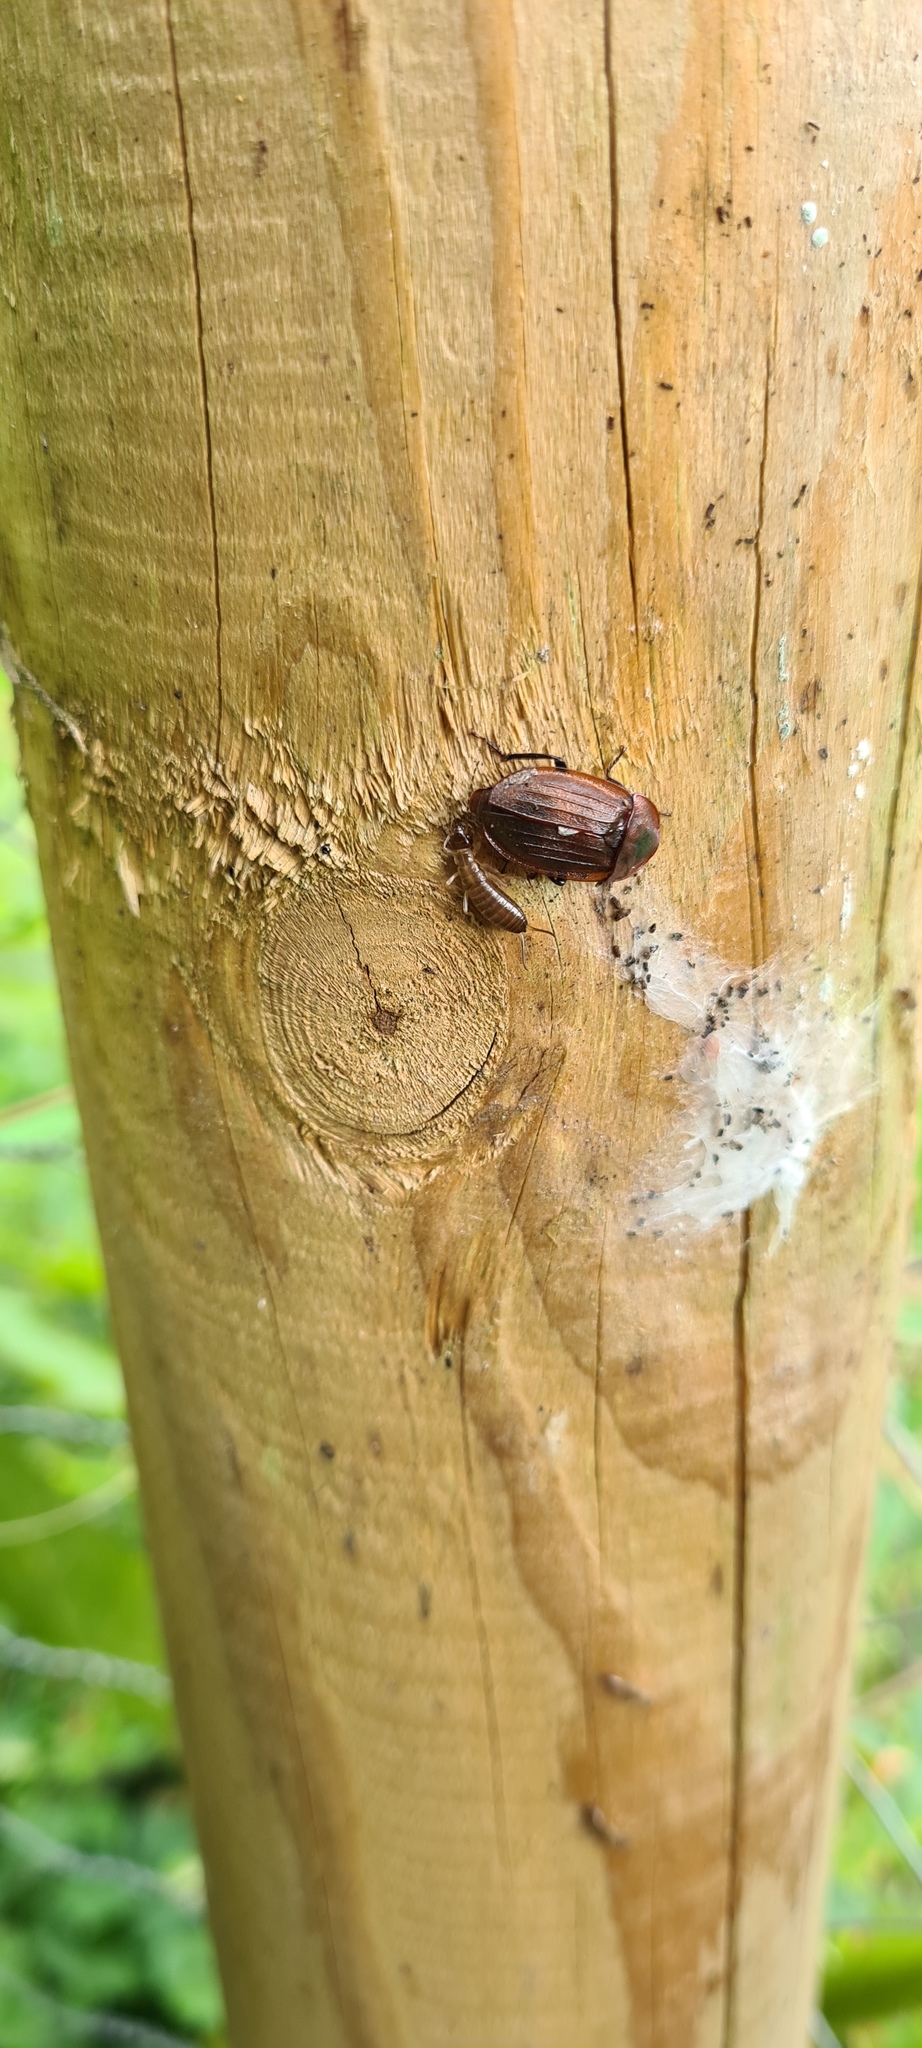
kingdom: Animalia
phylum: Arthropoda
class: Insecta
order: Coleoptera
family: Staphylinidae
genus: Silpha
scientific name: Silpha atrata
